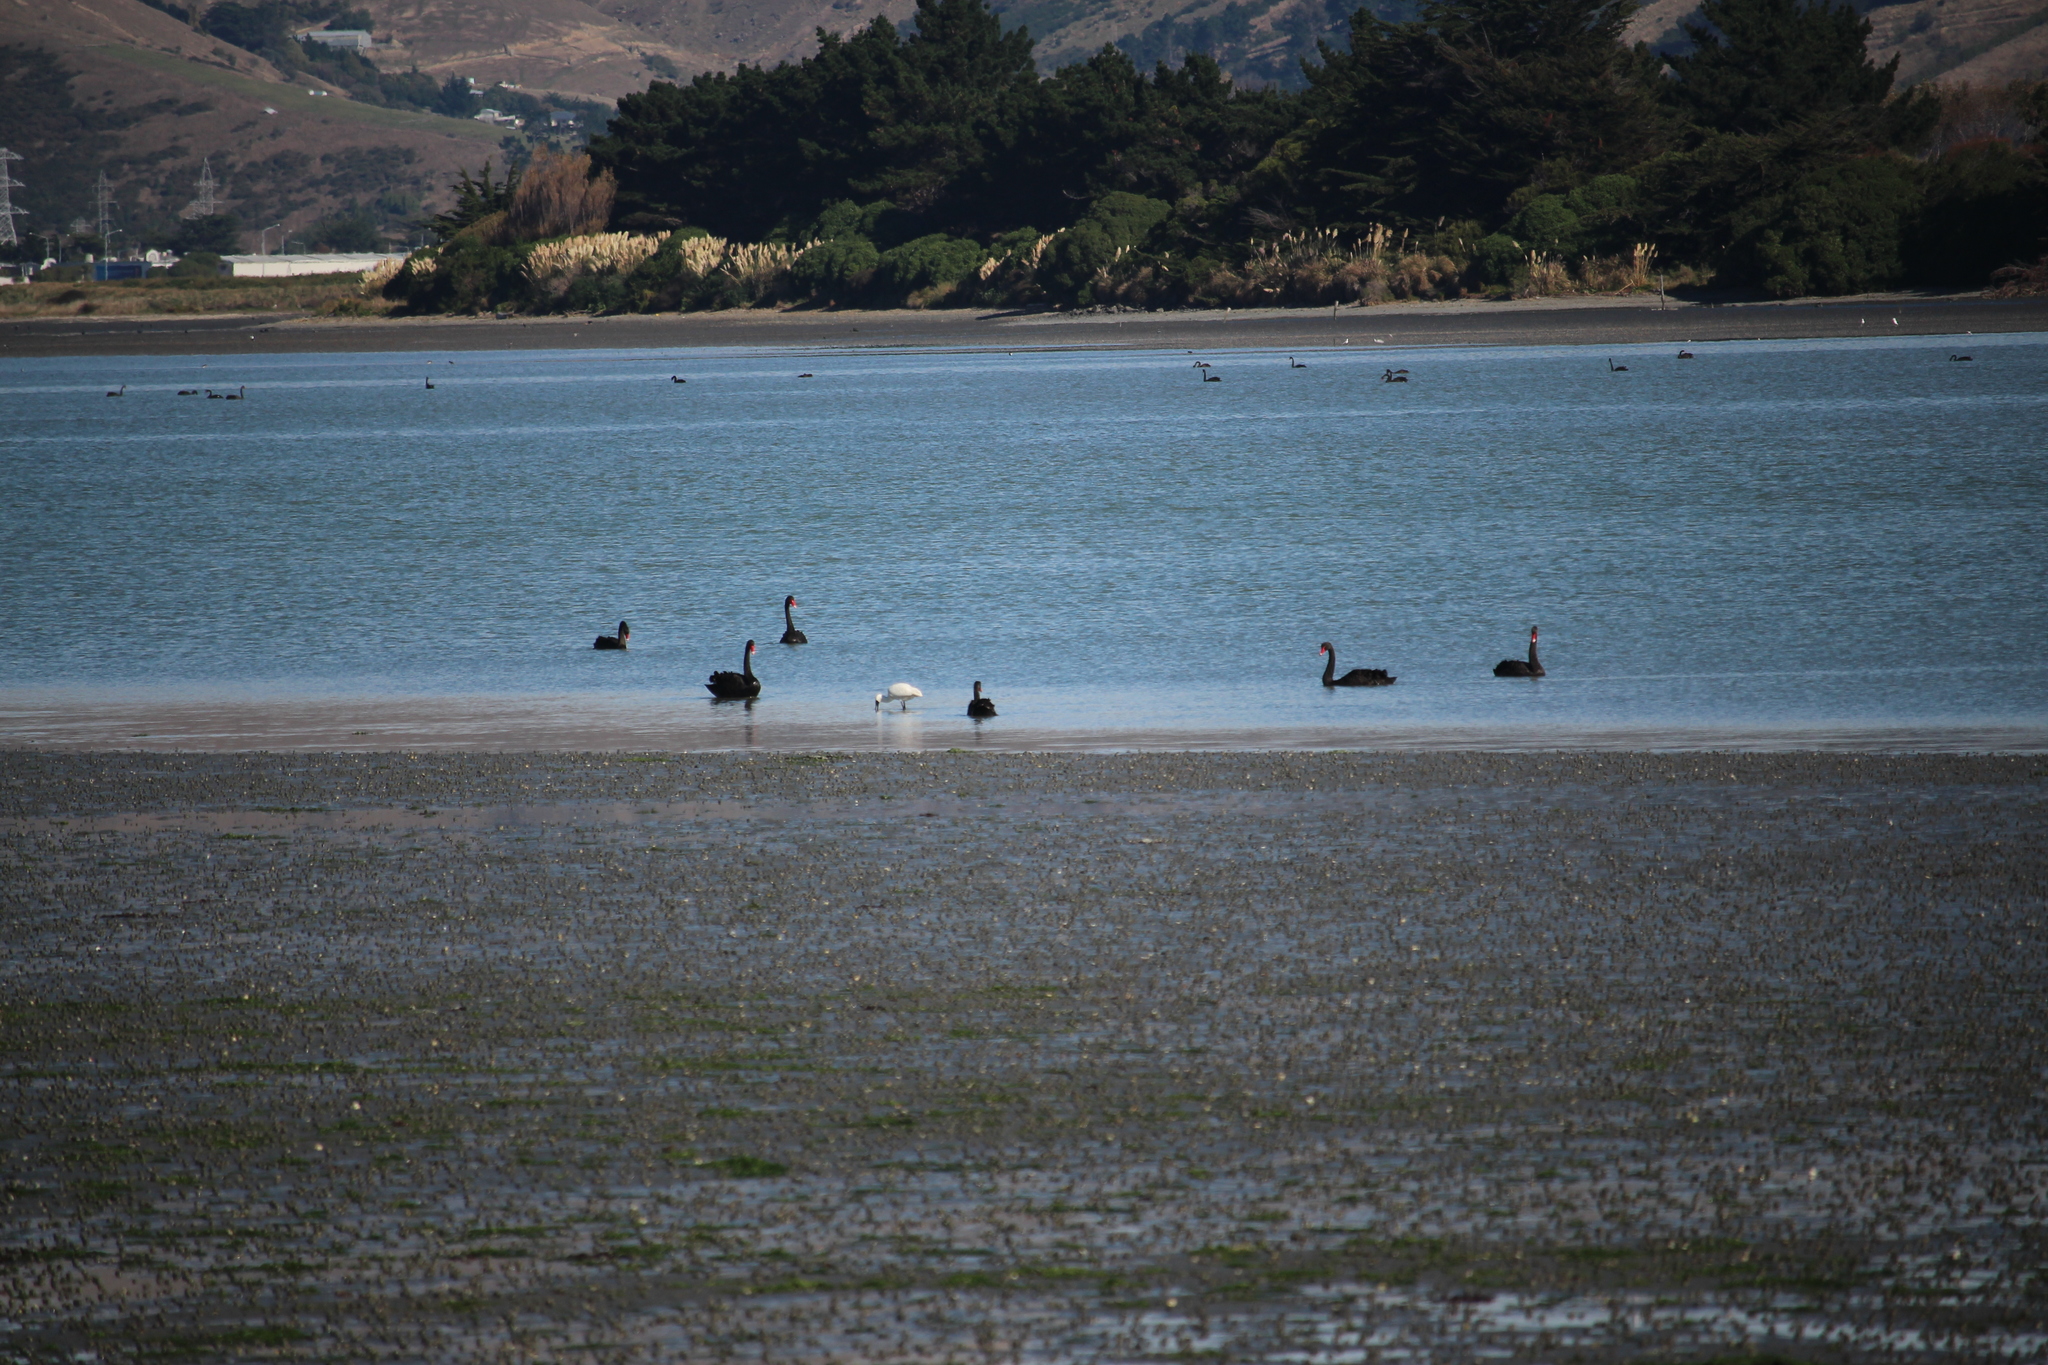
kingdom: Animalia
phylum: Chordata
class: Aves
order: Pelecaniformes
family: Threskiornithidae
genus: Platalea
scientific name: Platalea regia
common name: Royal spoonbill
